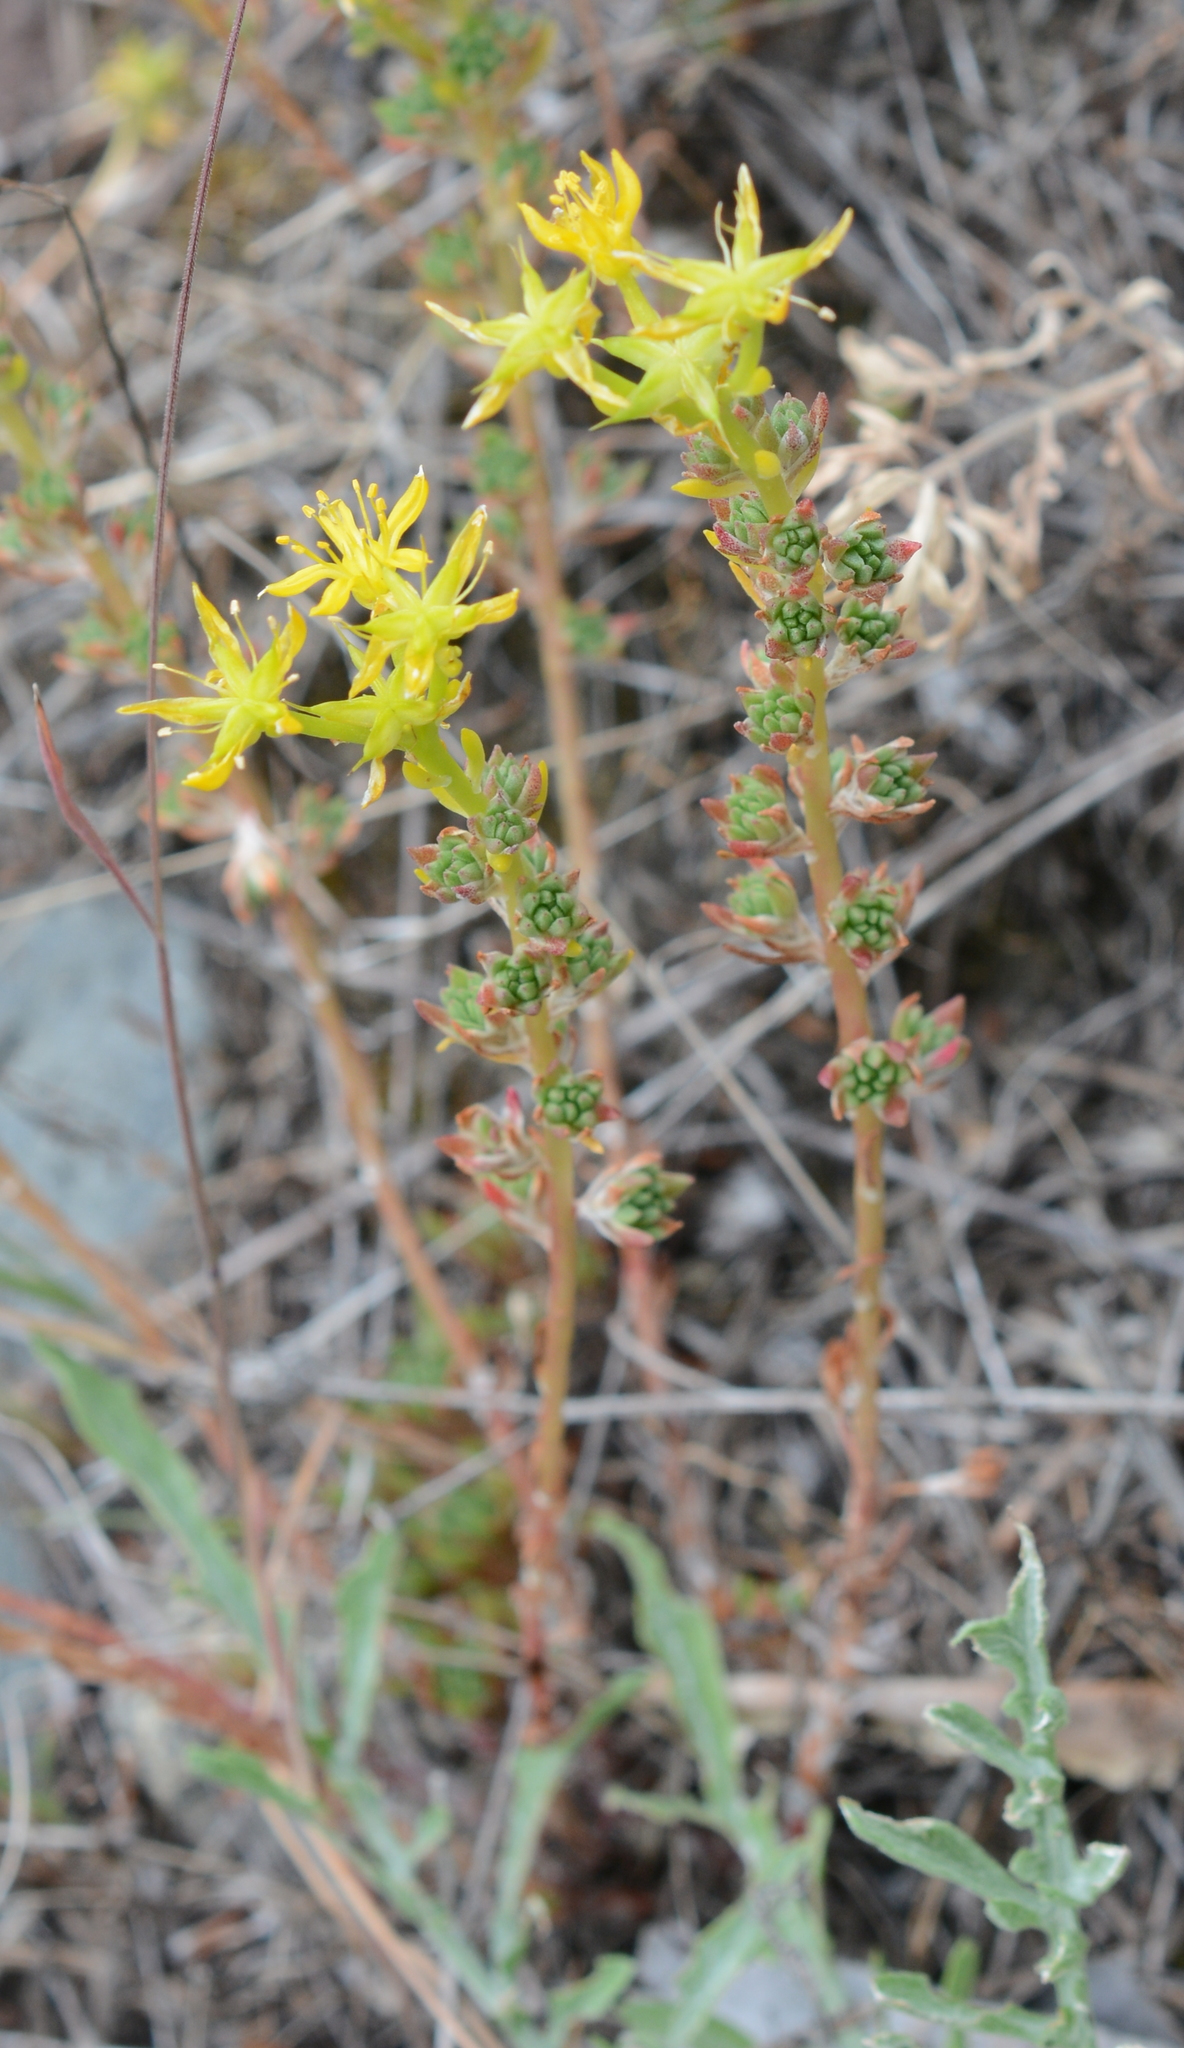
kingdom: Plantae
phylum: Tracheophyta
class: Magnoliopsida
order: Saxifragales
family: Crassulaceae
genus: Sedum
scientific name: Sedum stenopetalum
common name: Narrow-petaled stonecrop
